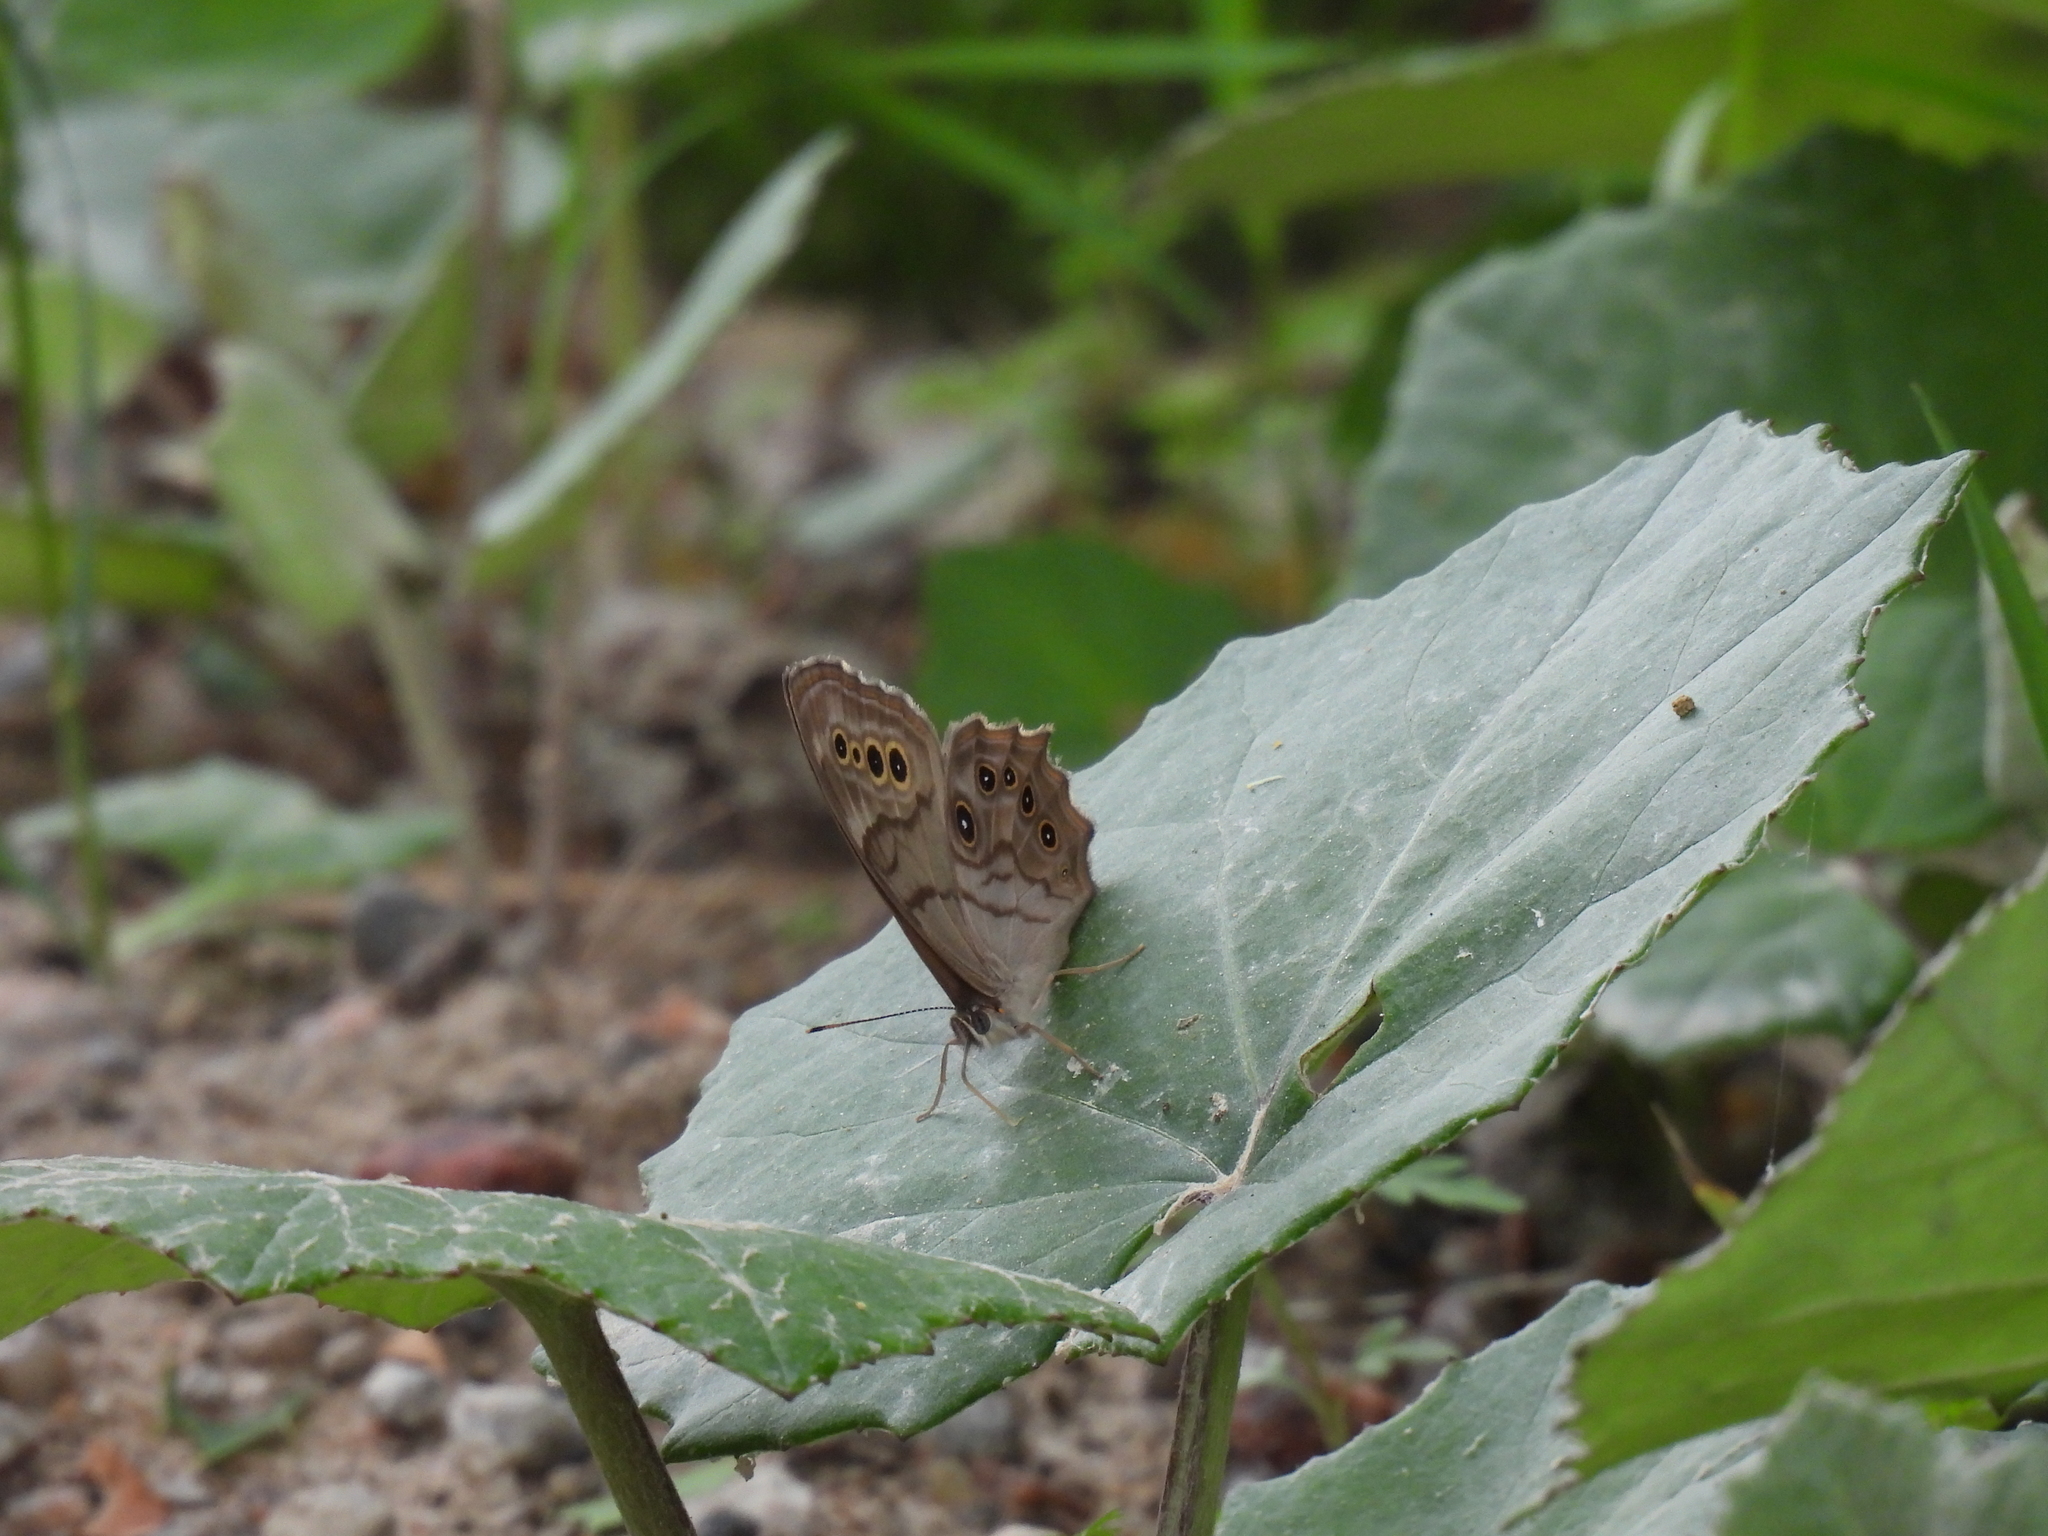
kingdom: Animalia
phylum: Arthropoda
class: Insecta
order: Lepidoptera
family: Nymphalidae
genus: Lethe
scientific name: Lethe anthedon
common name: Northern pearly-eye
